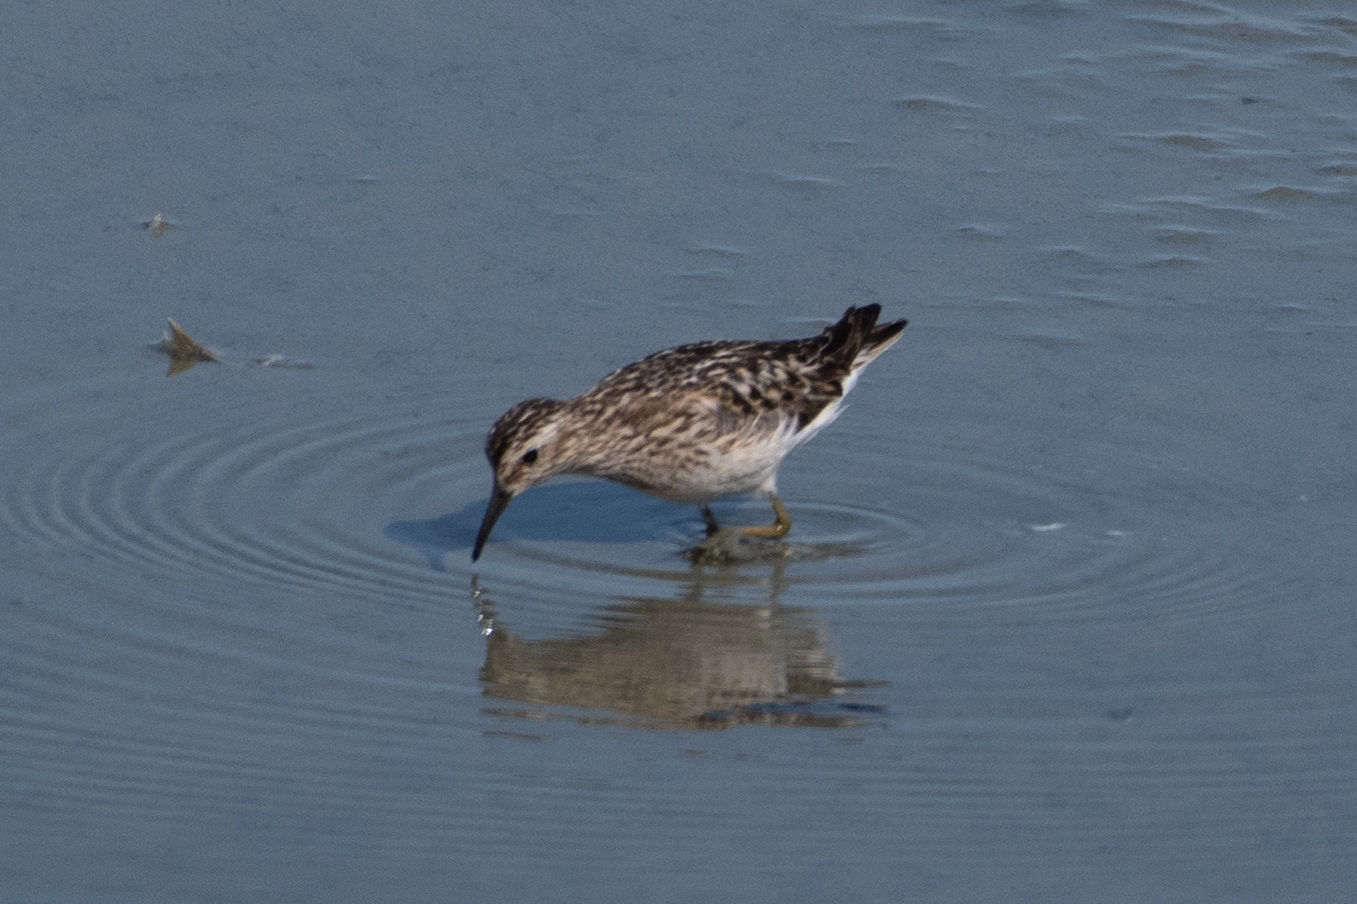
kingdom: Animalia
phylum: Chordata
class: Aves
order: Charadriiformes
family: Scolopacidae
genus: Calidris
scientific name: Calidris minutilla
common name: Least sandpiper
